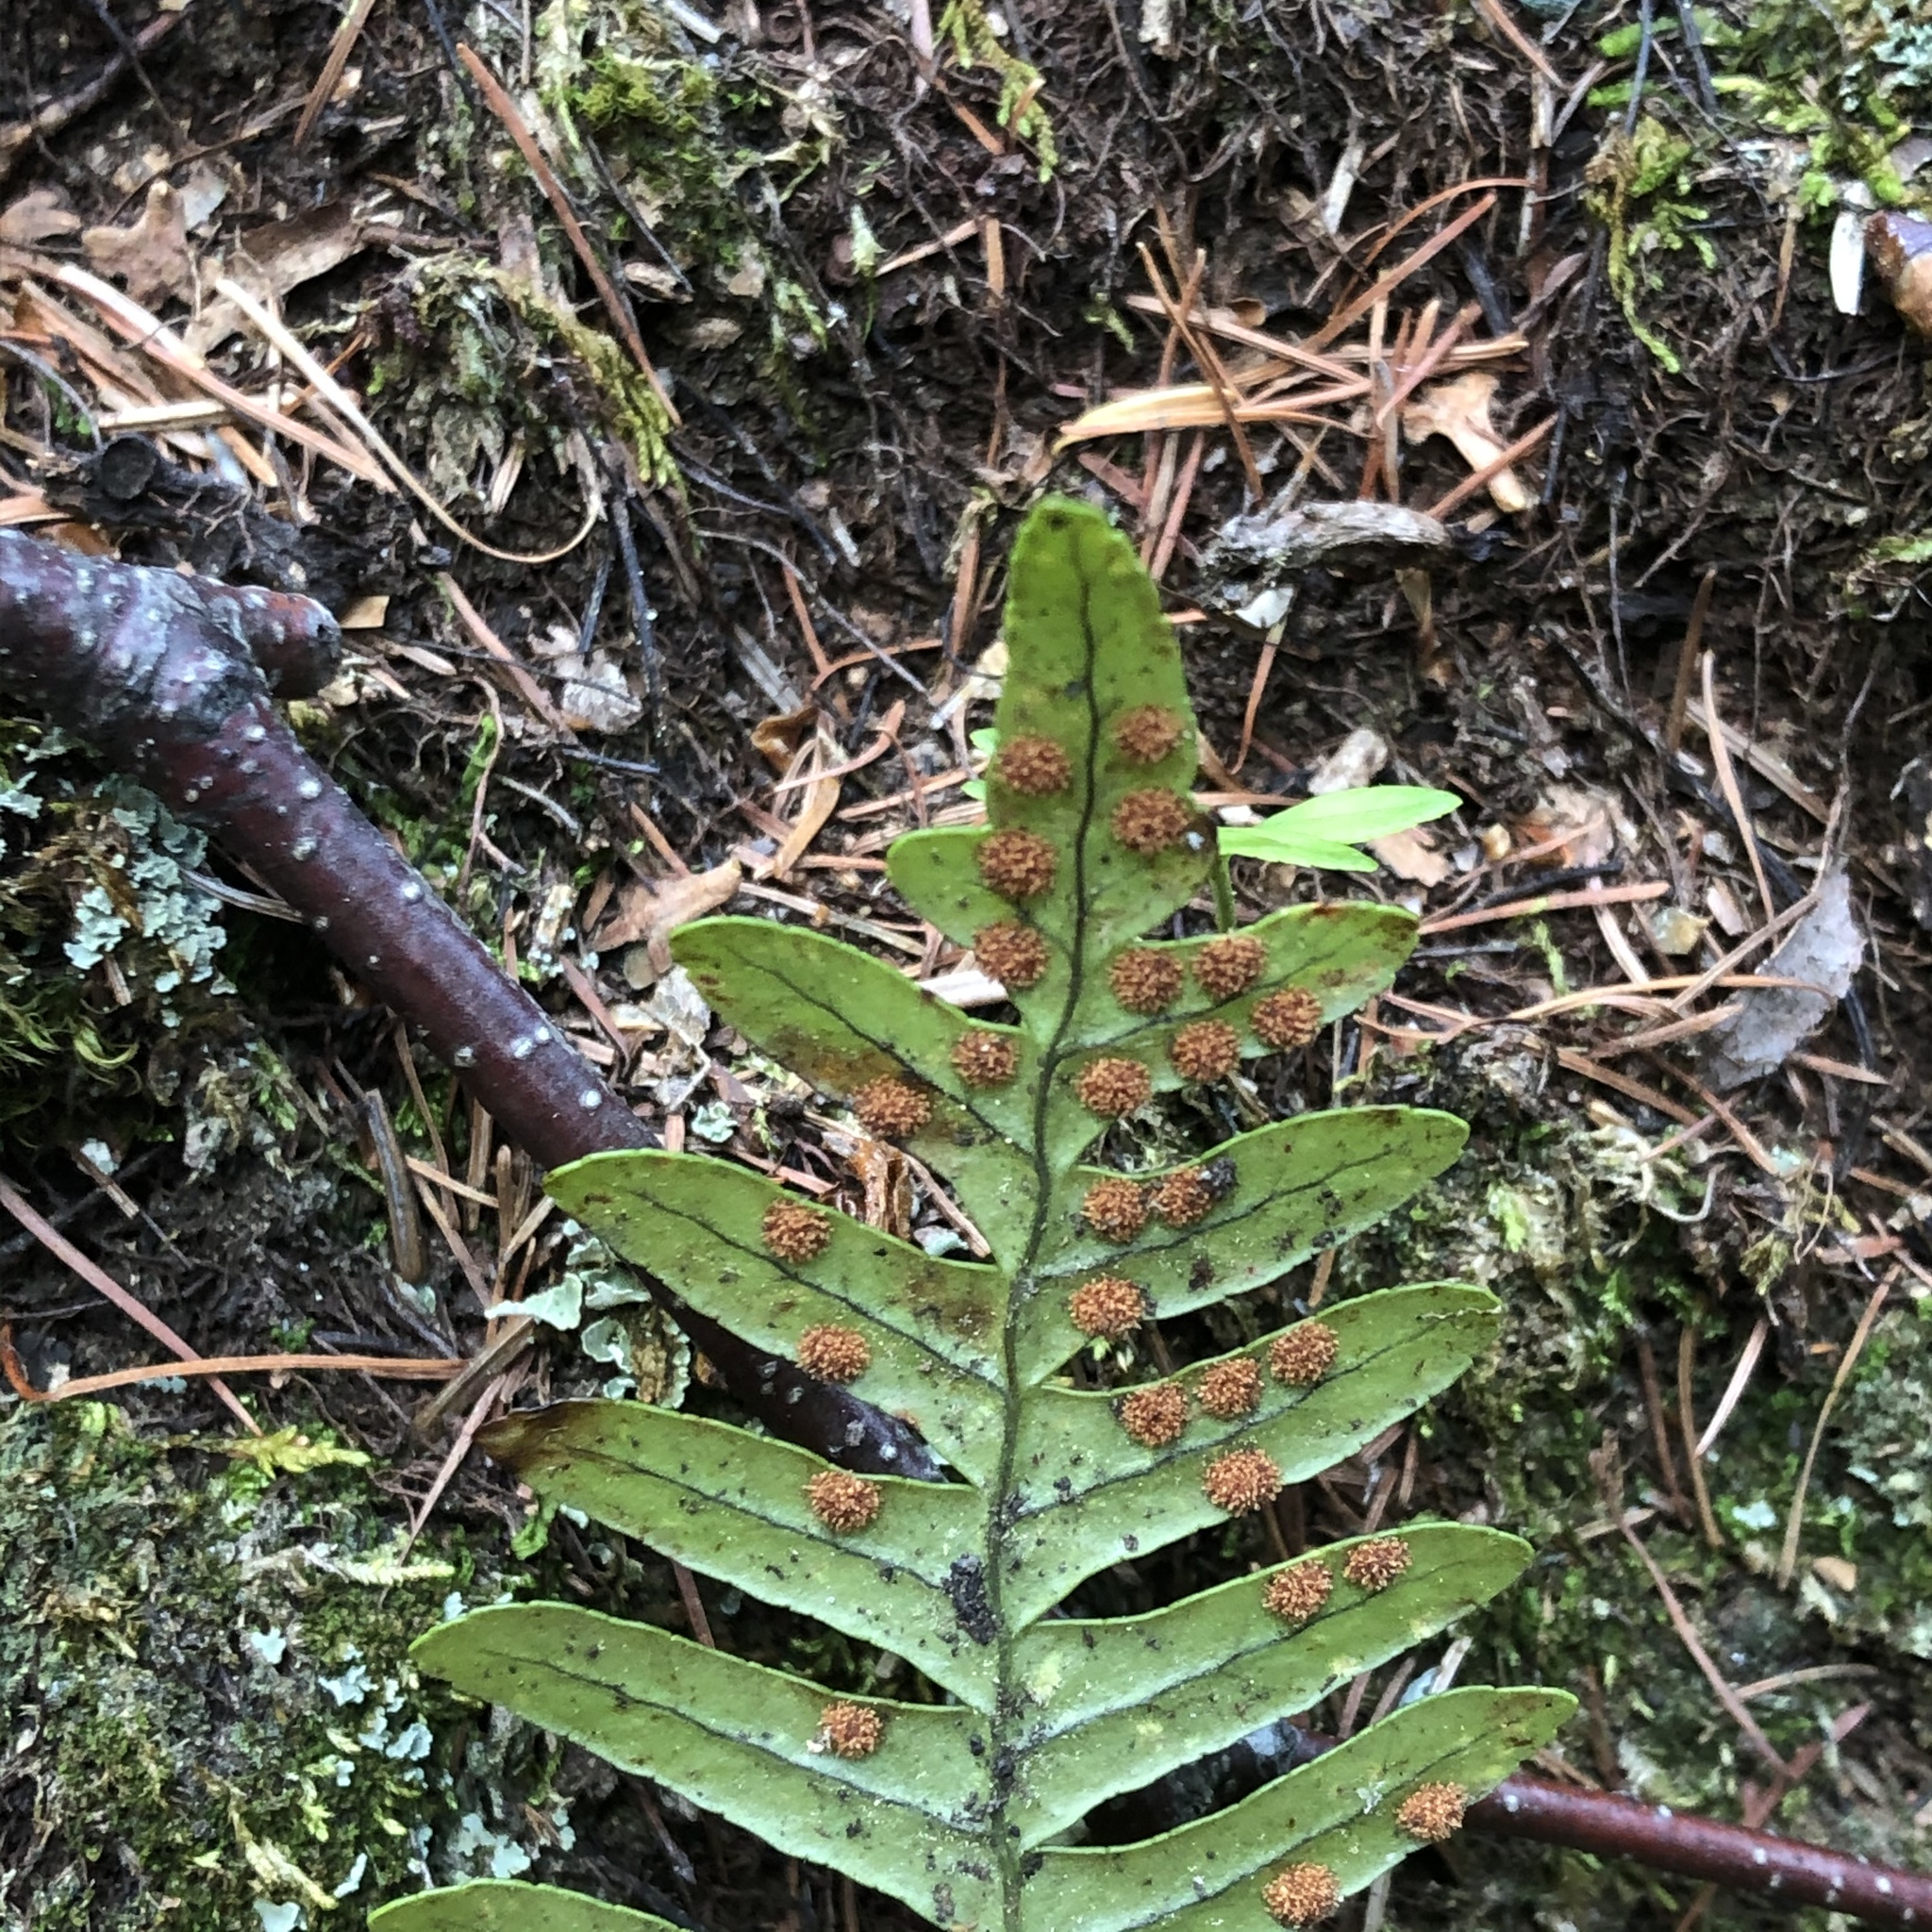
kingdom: Plantae
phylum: Tracheophyta
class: Polypodiopsida
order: Polypodiales
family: Polypodiaceae
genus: Polypodium
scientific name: Polypodium virginianum
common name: American wall fern
